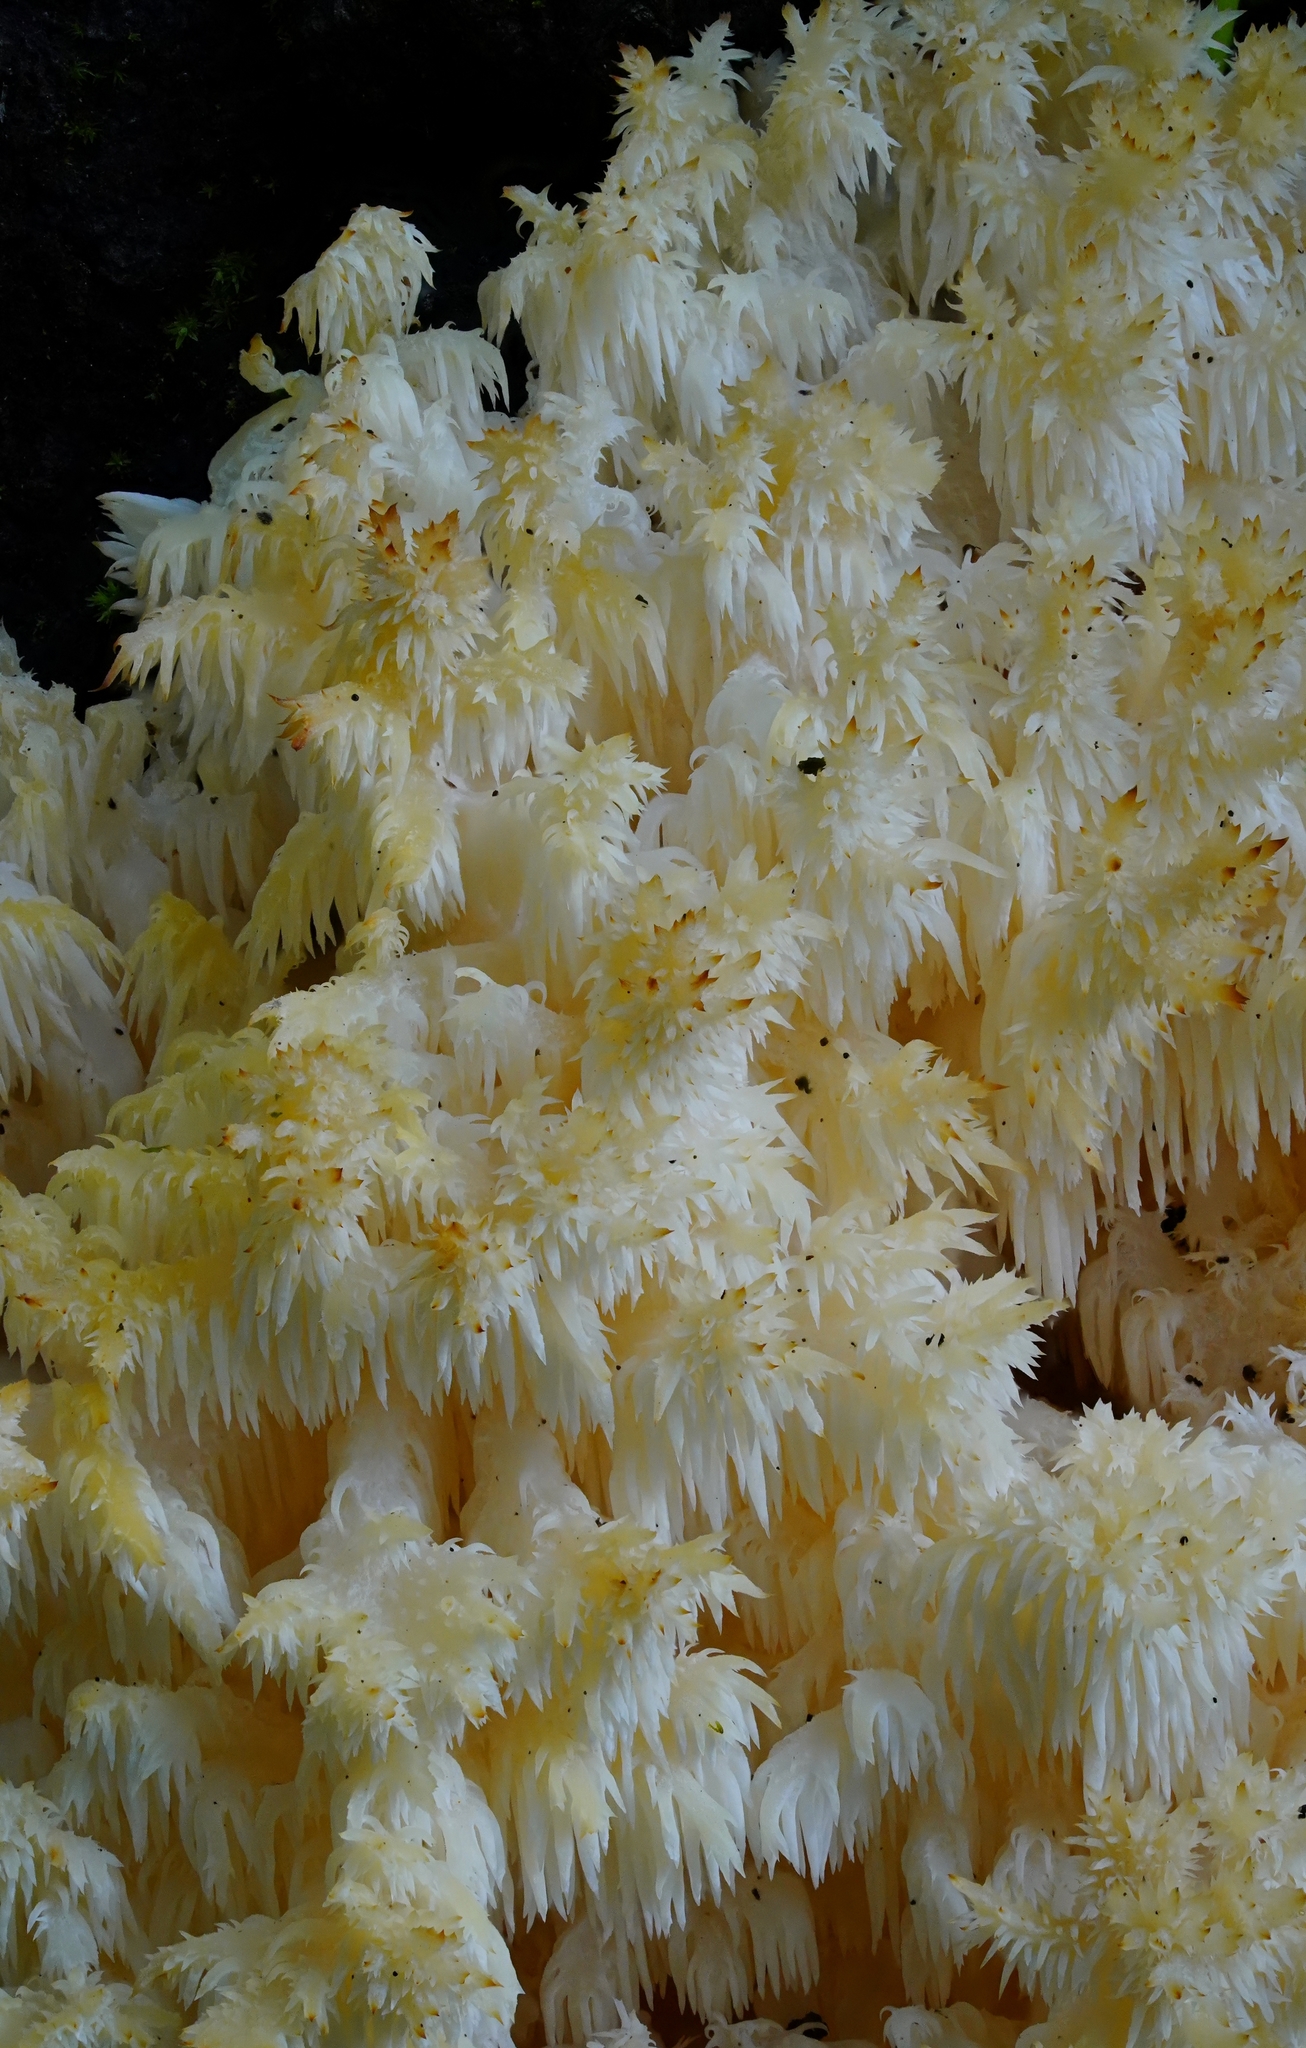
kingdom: Fungi
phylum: Basidiomycota
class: Agaricomycetes
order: Russulales
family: Hericiaceae
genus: Hericium
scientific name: Hericium coralloides
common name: Coral tooth
